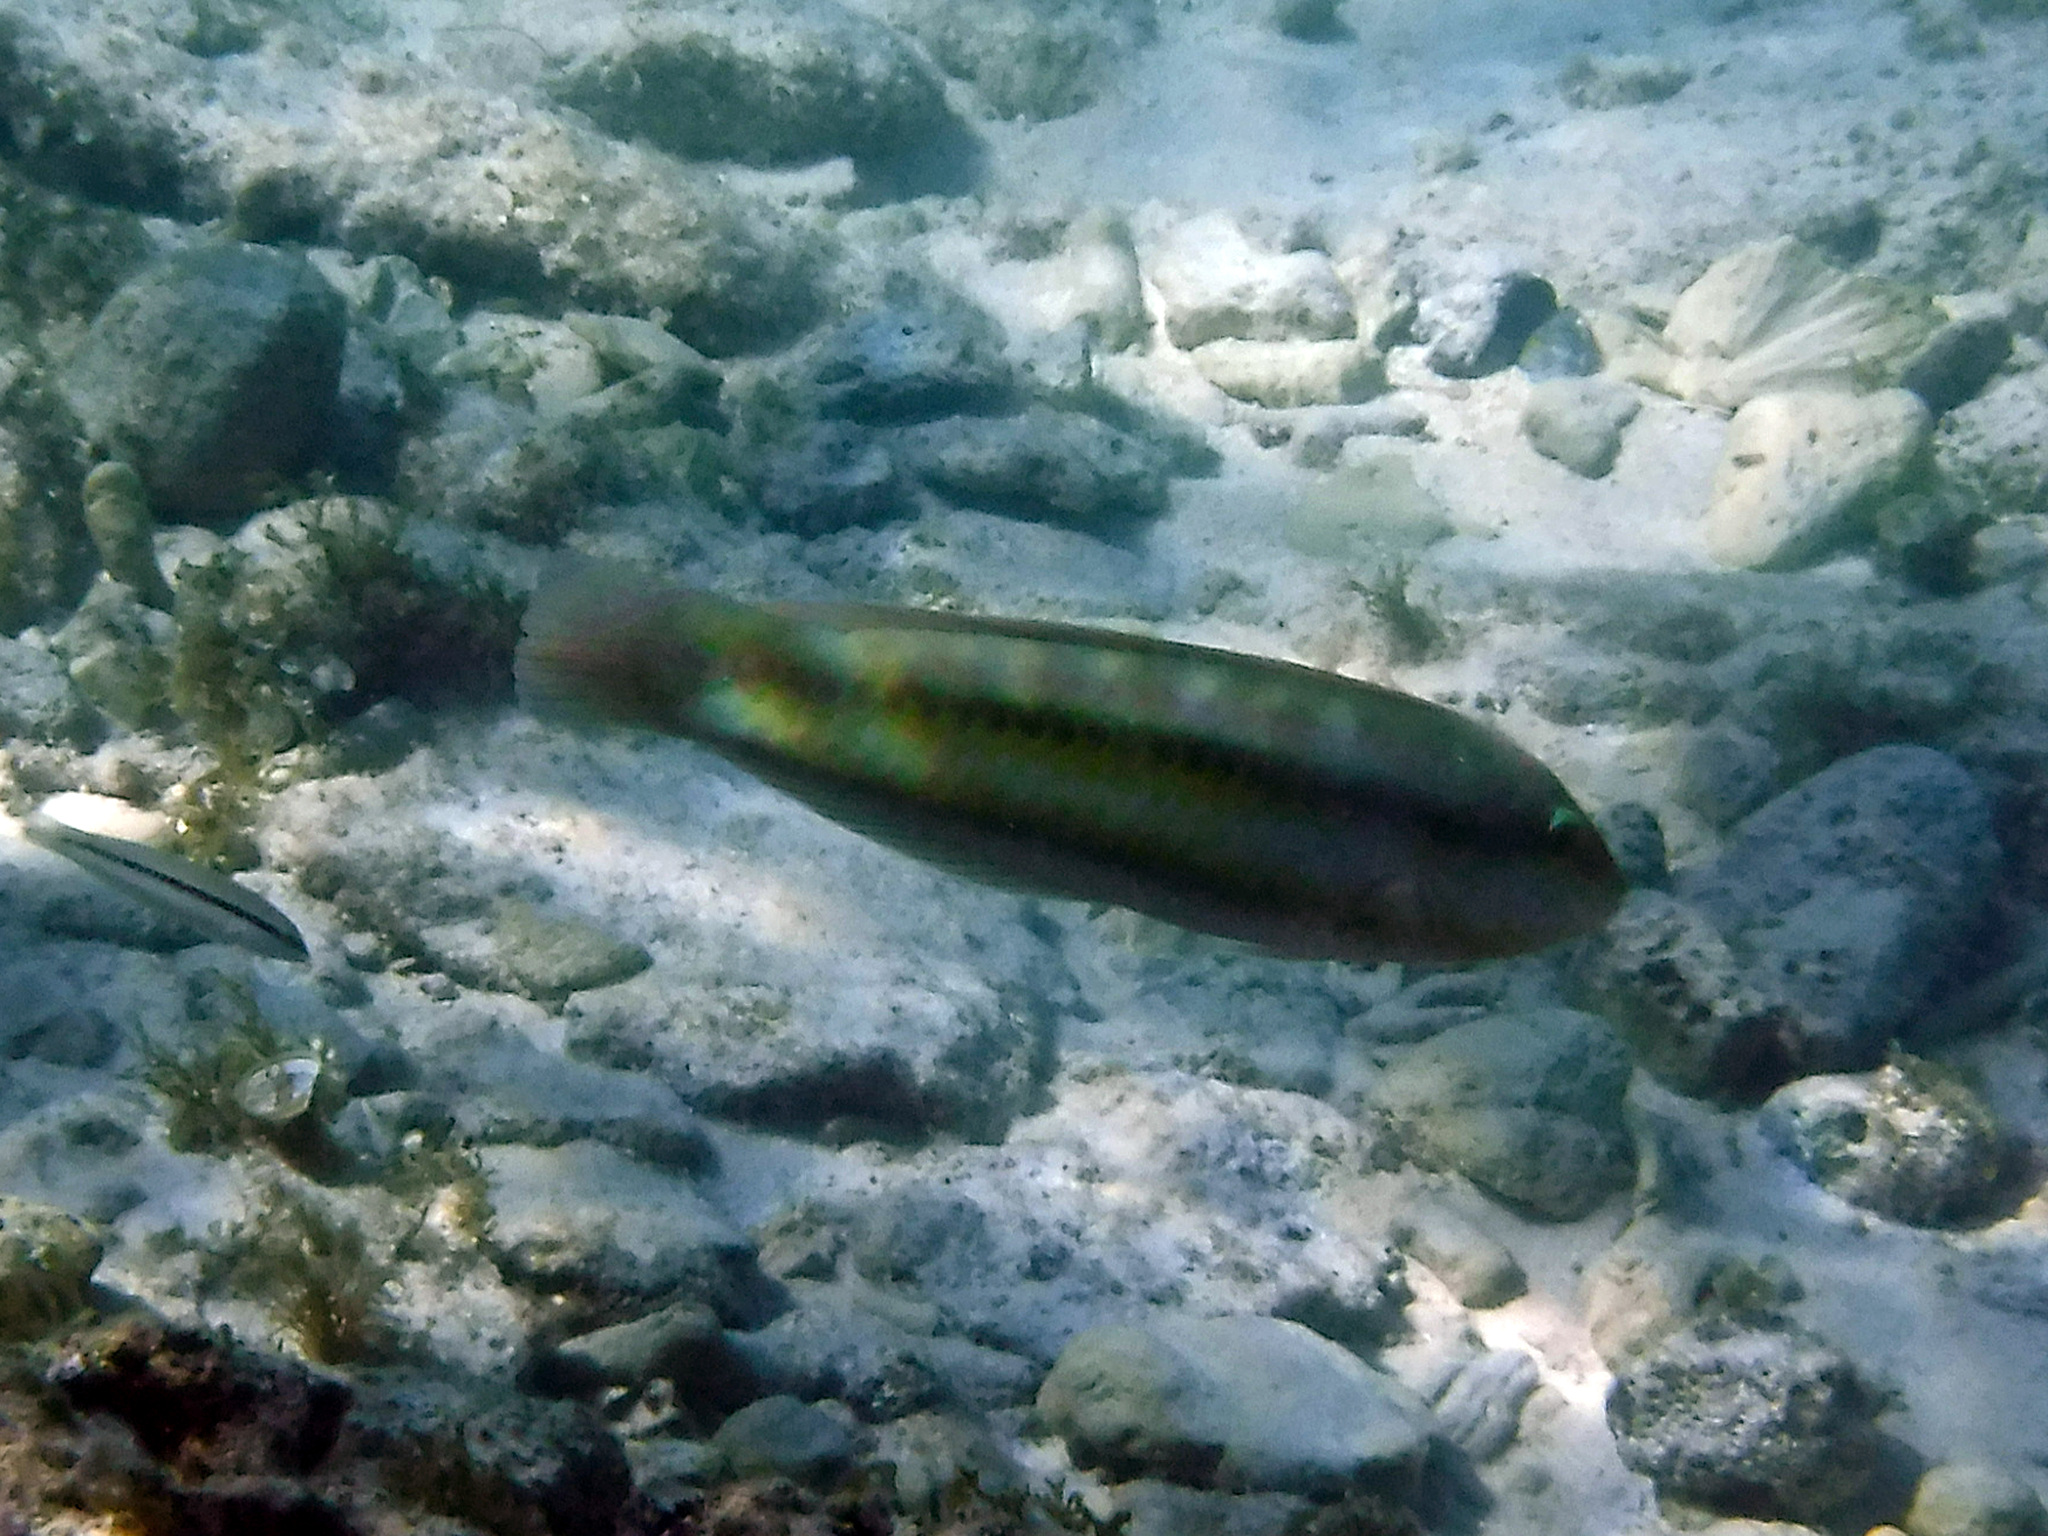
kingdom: Animalia
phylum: Chordata
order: Perciformes
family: Labridae
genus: Halichoeres
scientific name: Halichoeres bivittatus
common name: Slippery dick
